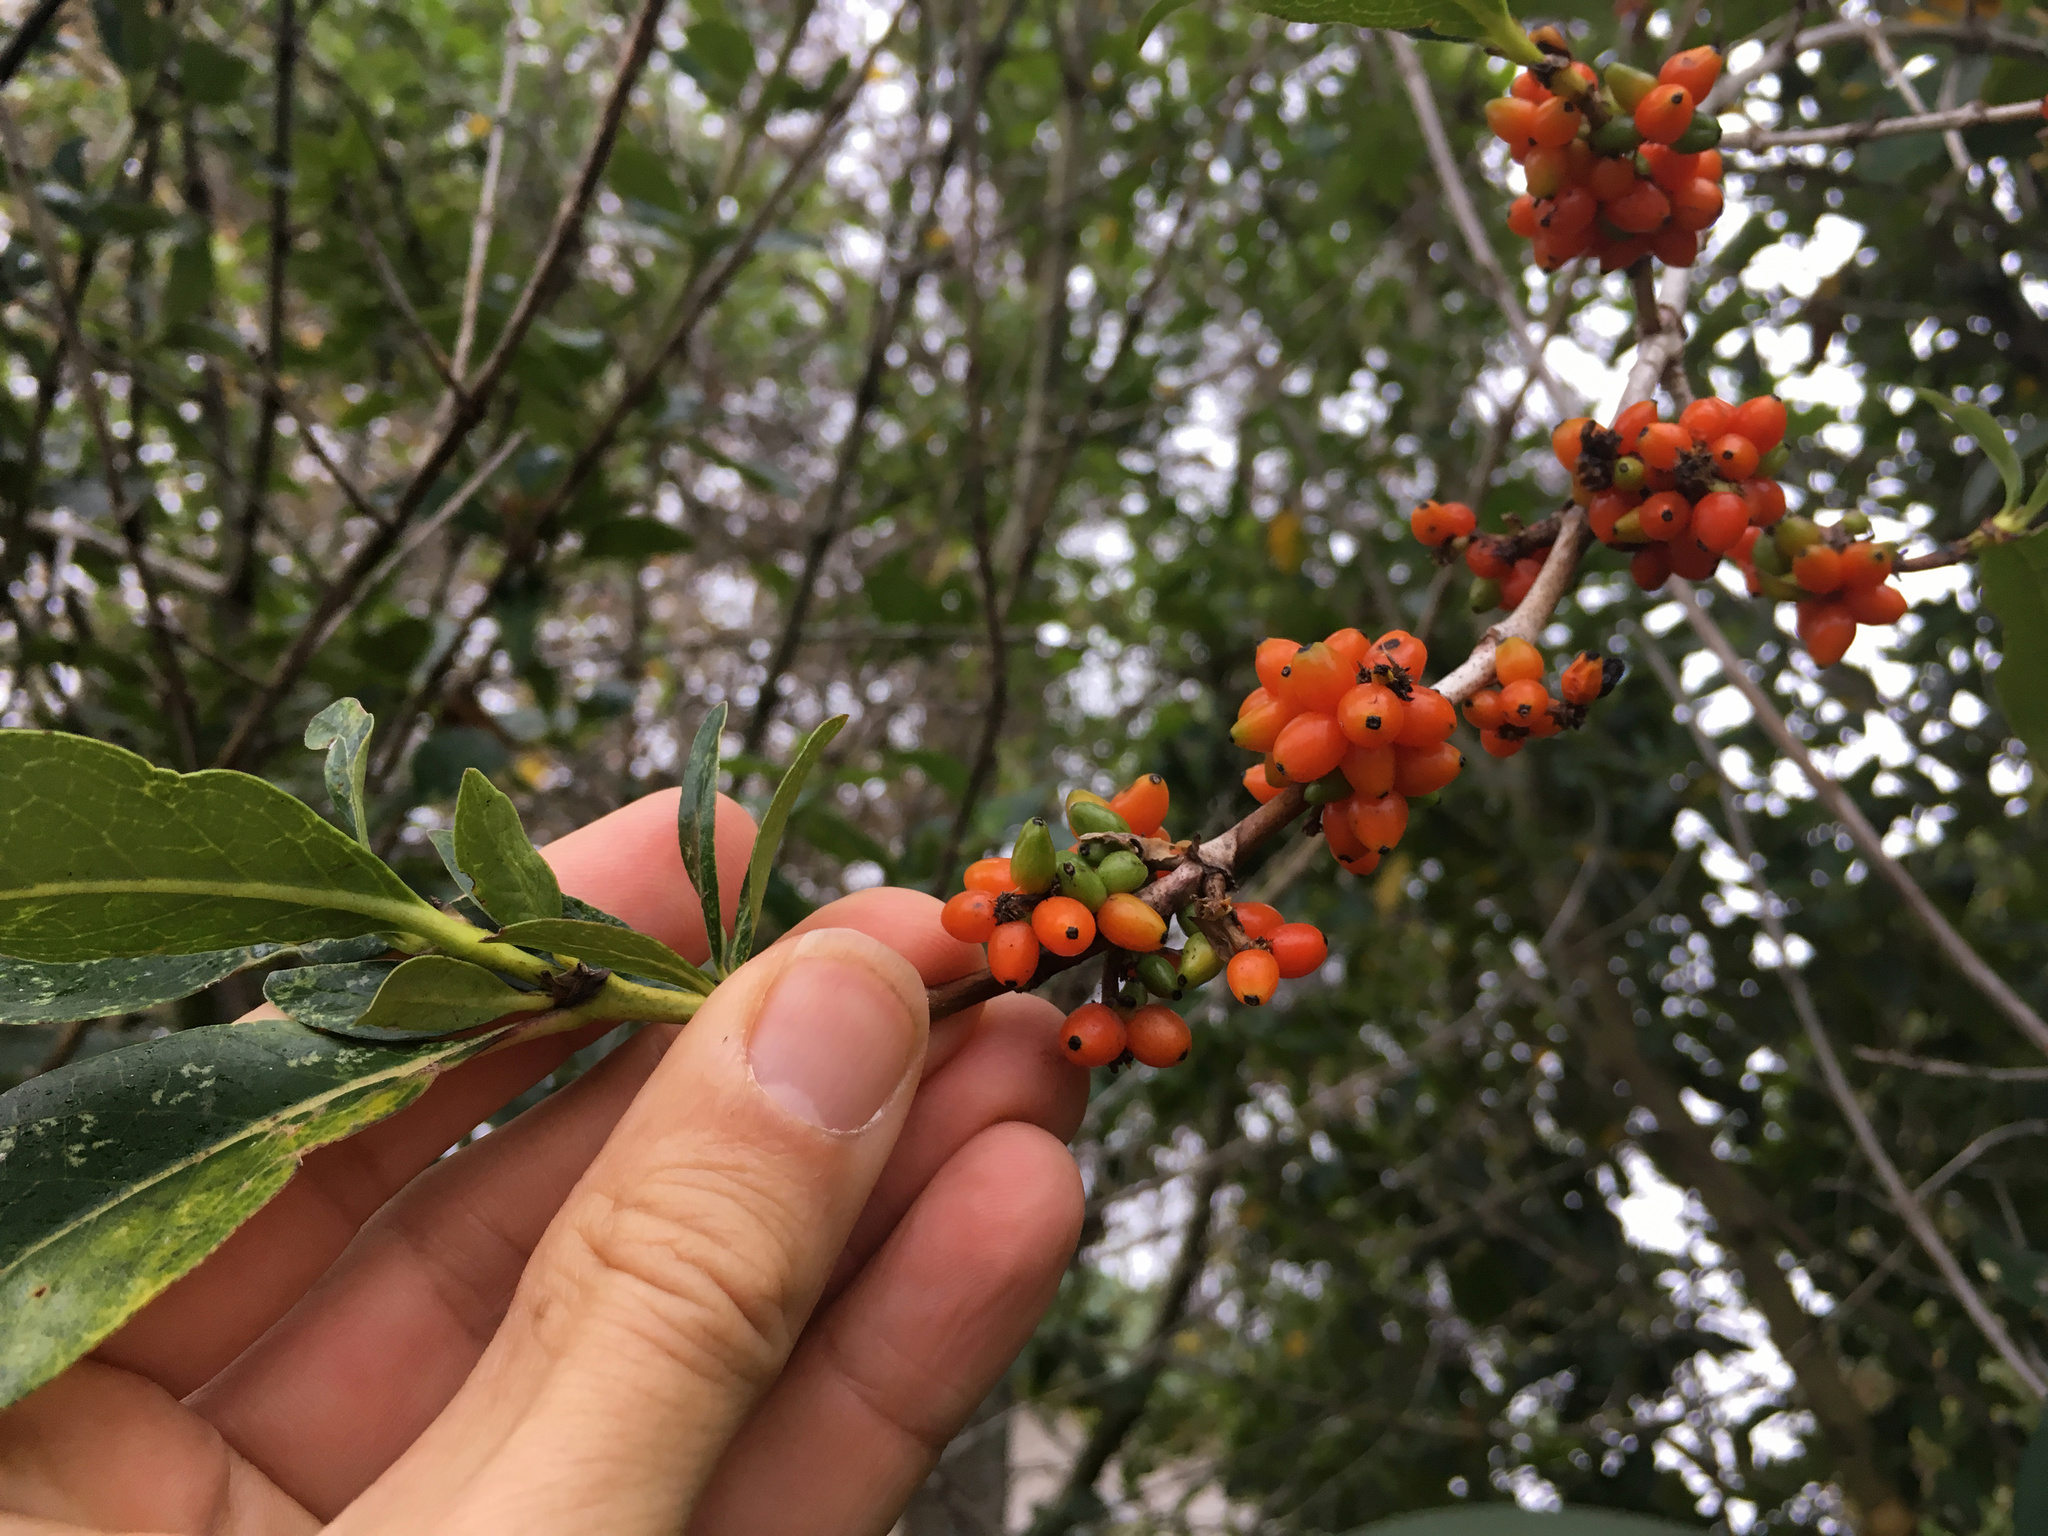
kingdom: Plantae
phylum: Tracheophyta
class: Magnoliopsida
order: Gentianales
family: Rubiaceae
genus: Coprosma
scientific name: Coprosma robusta
